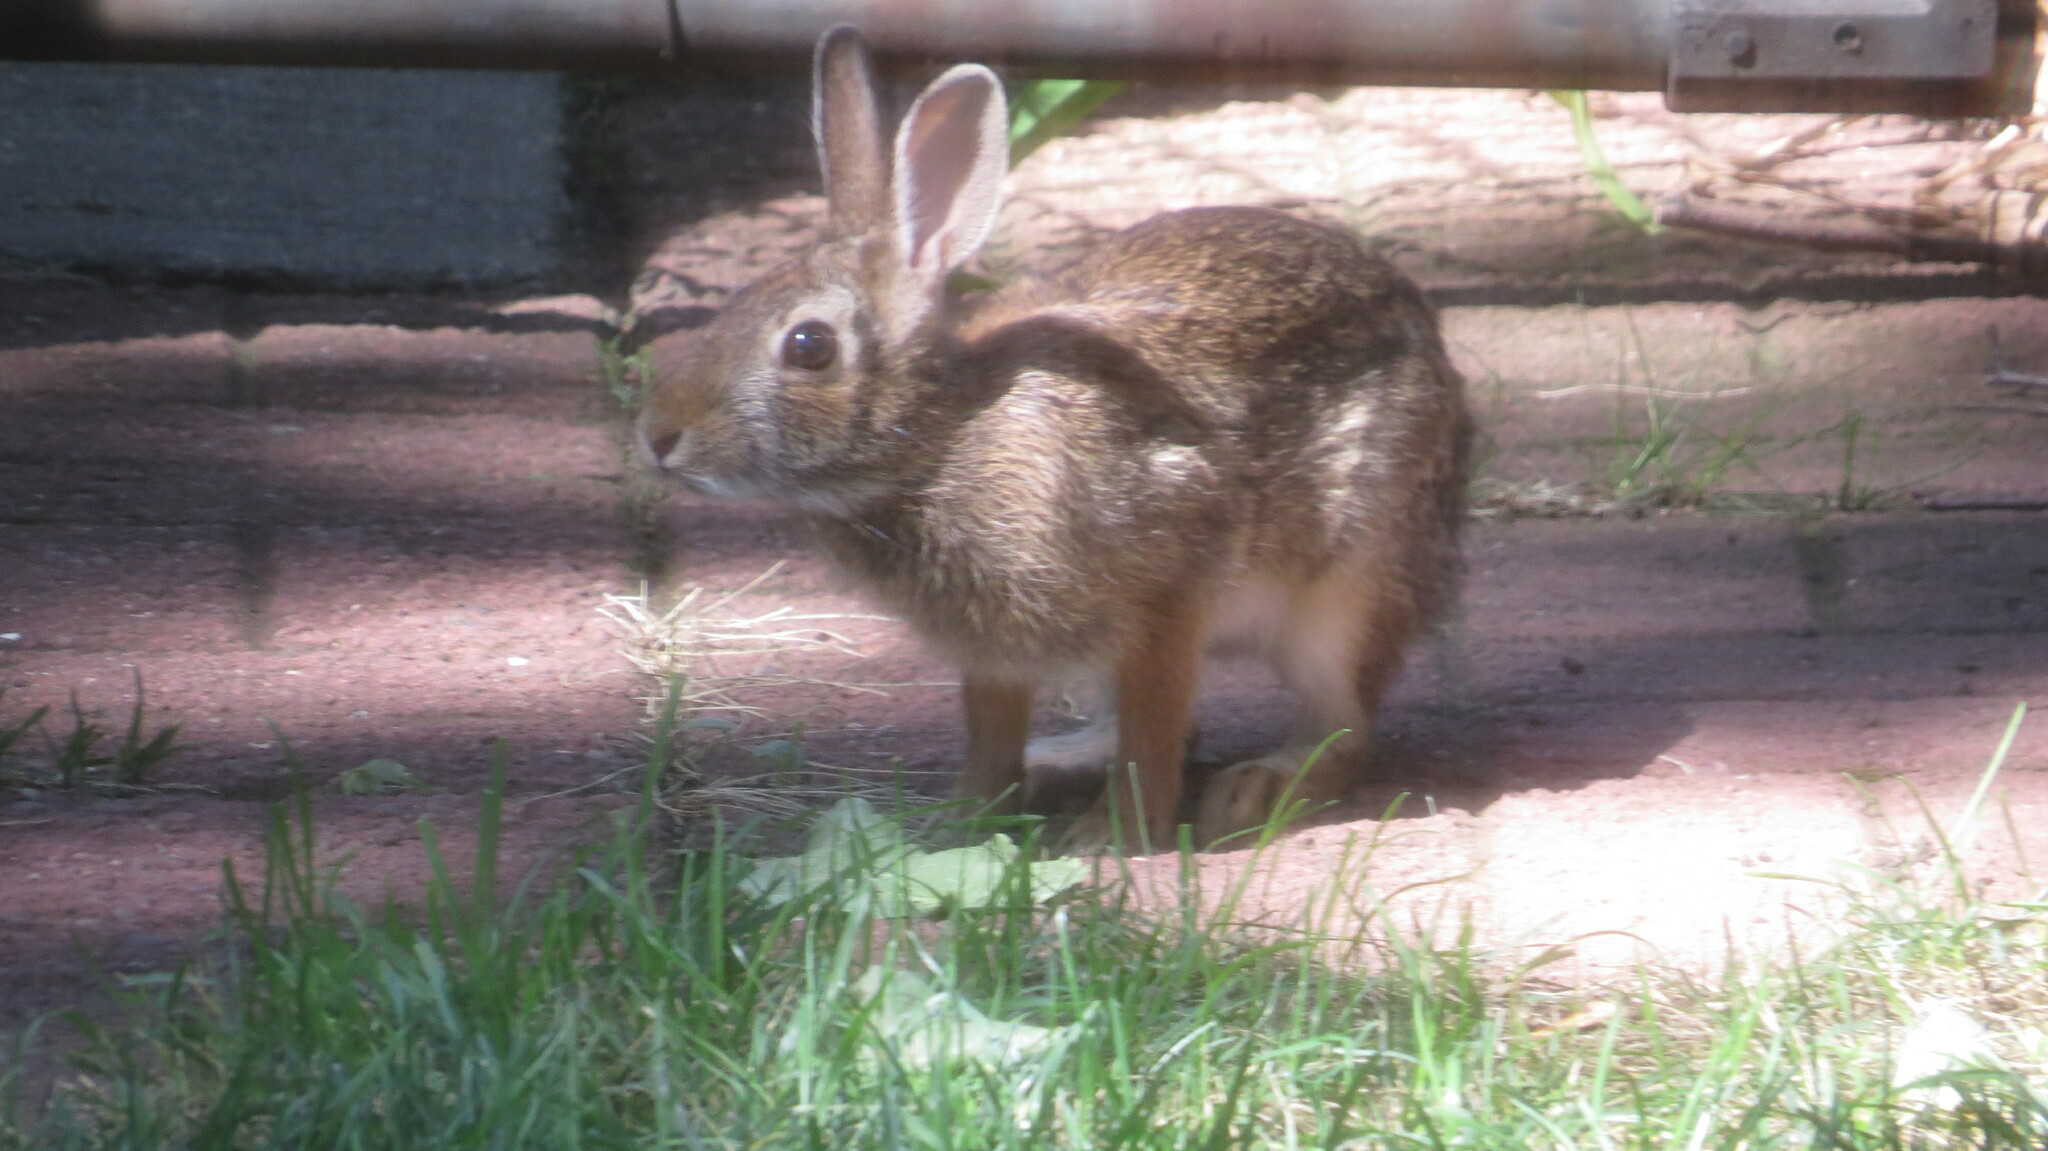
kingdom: Animalia
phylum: Chordata
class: Mammalia
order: Lagomorpha
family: Leporidae
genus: Sylvilagus
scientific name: Sylvilagus floridanus
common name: Eastern cottontail
